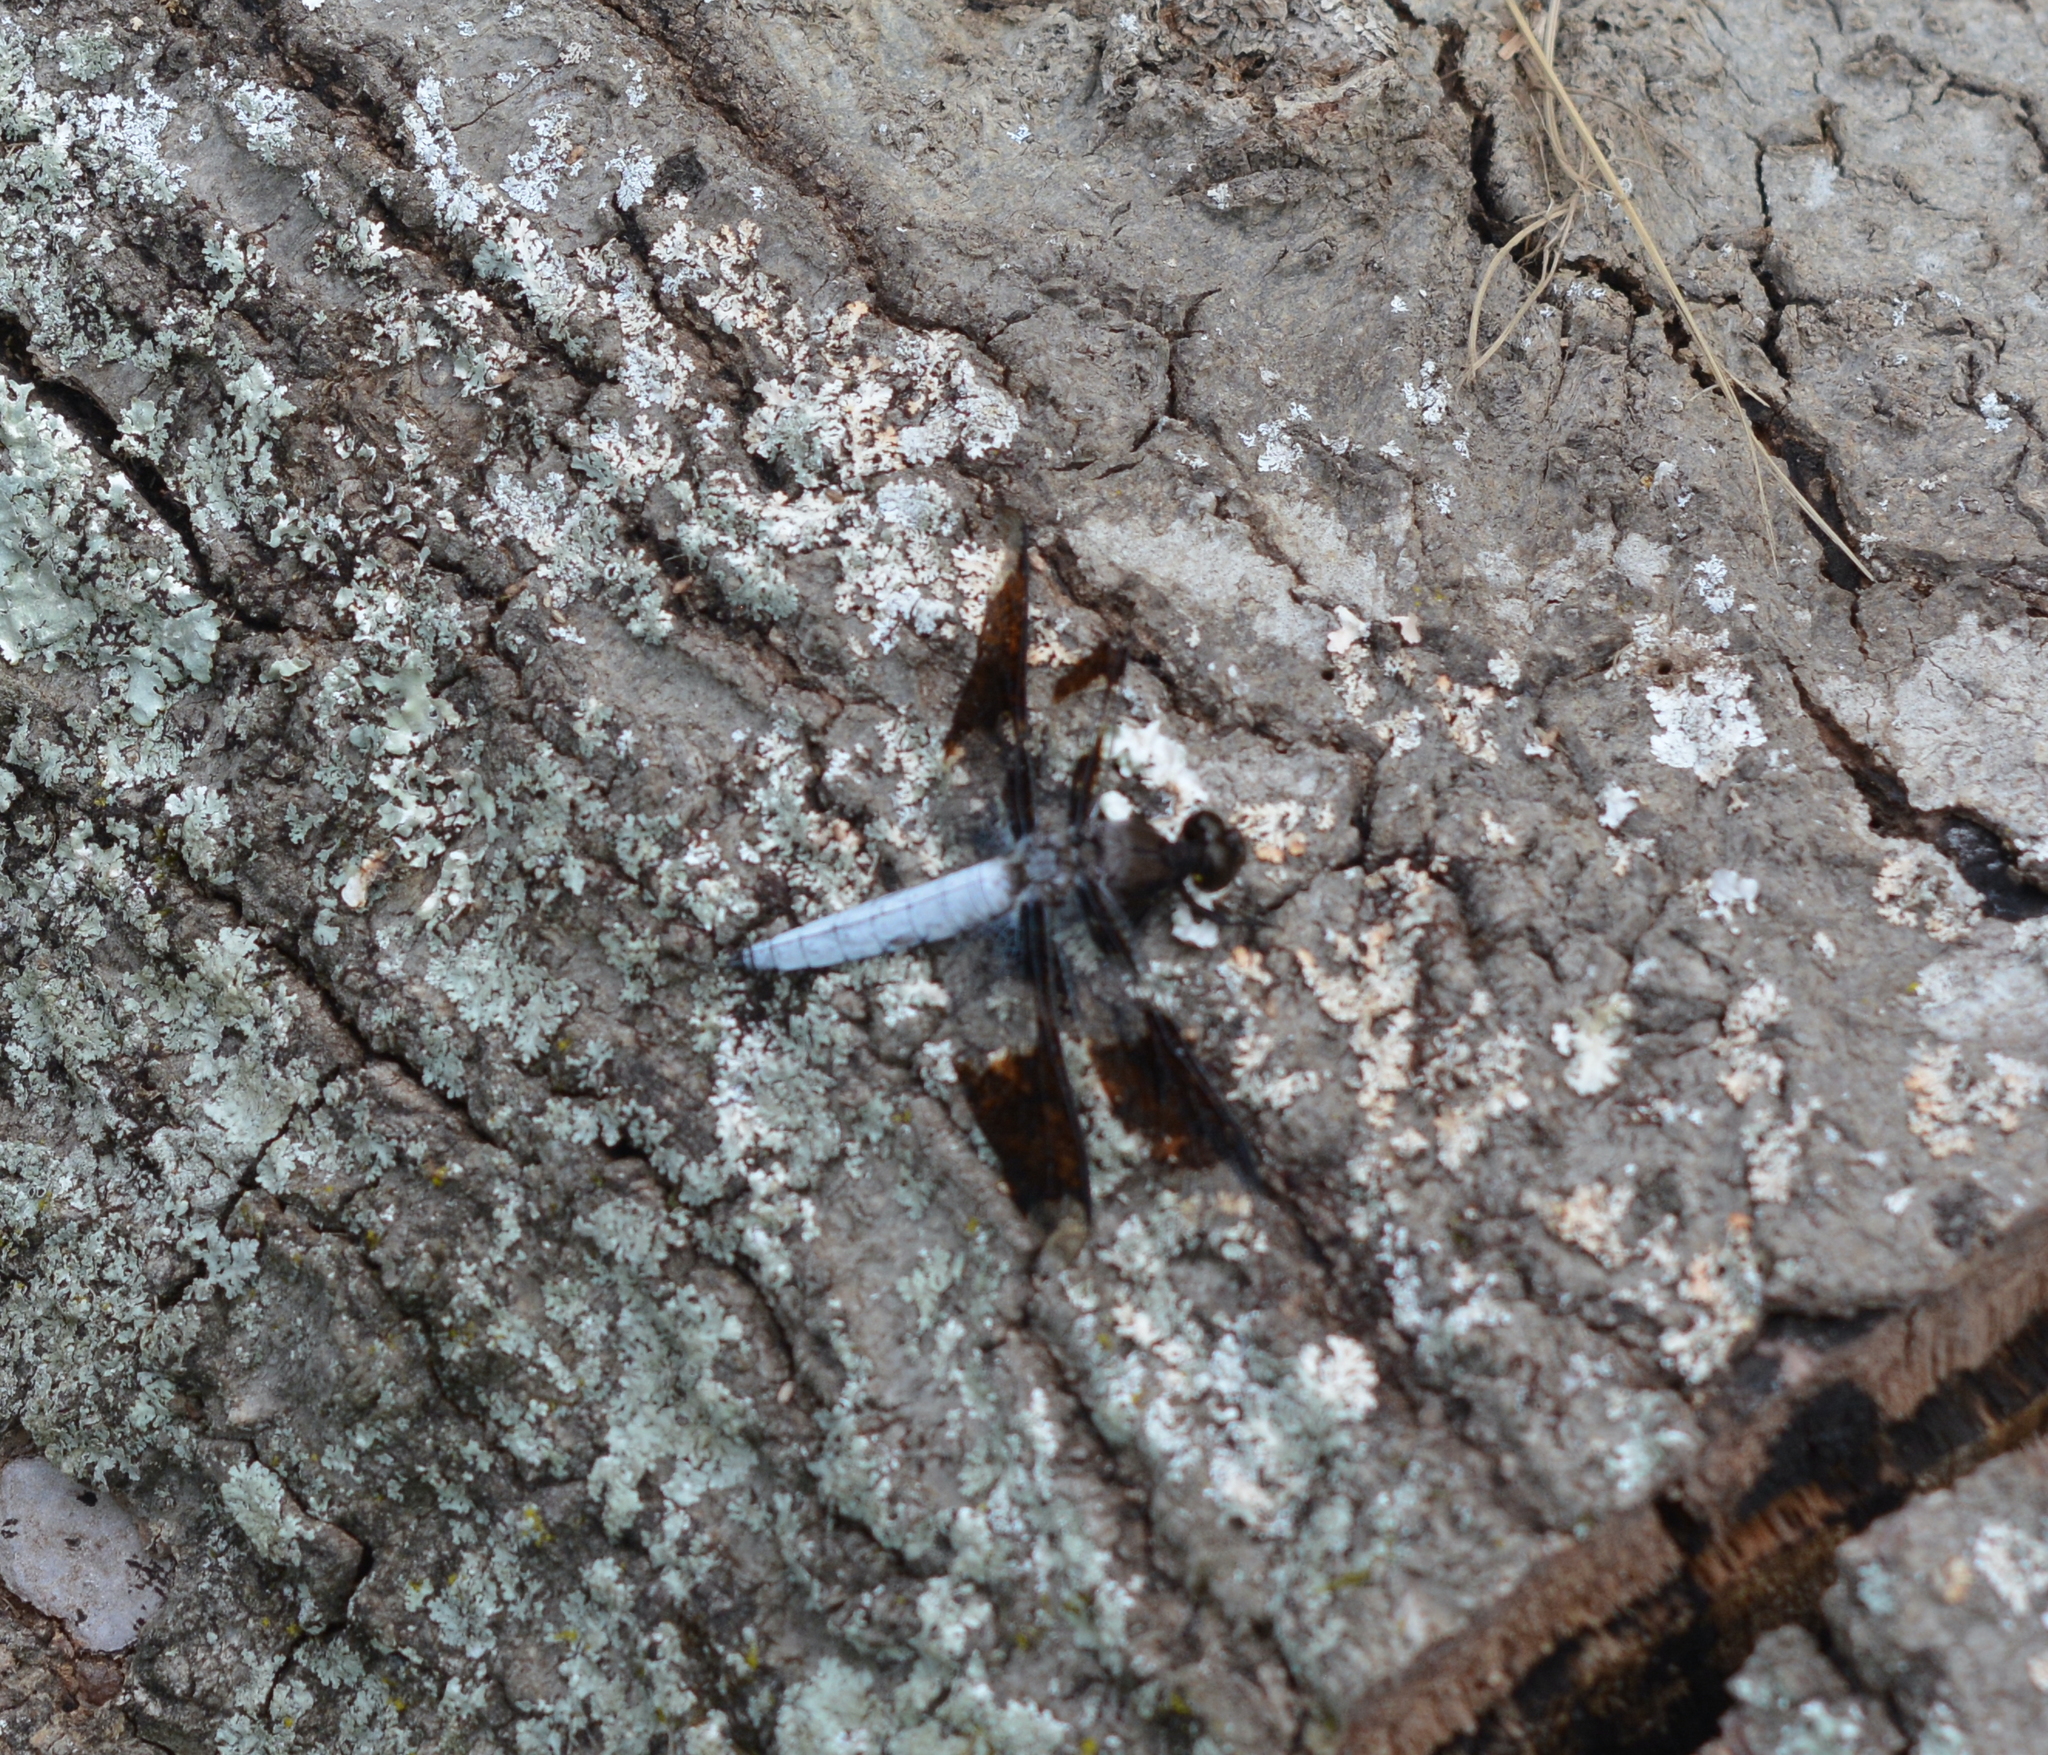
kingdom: Animalia
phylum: Arthropoda
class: Insecta
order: Odonata
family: Libellulidae
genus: Plathemis
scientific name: Plathemis lydia
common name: Common whitetail
